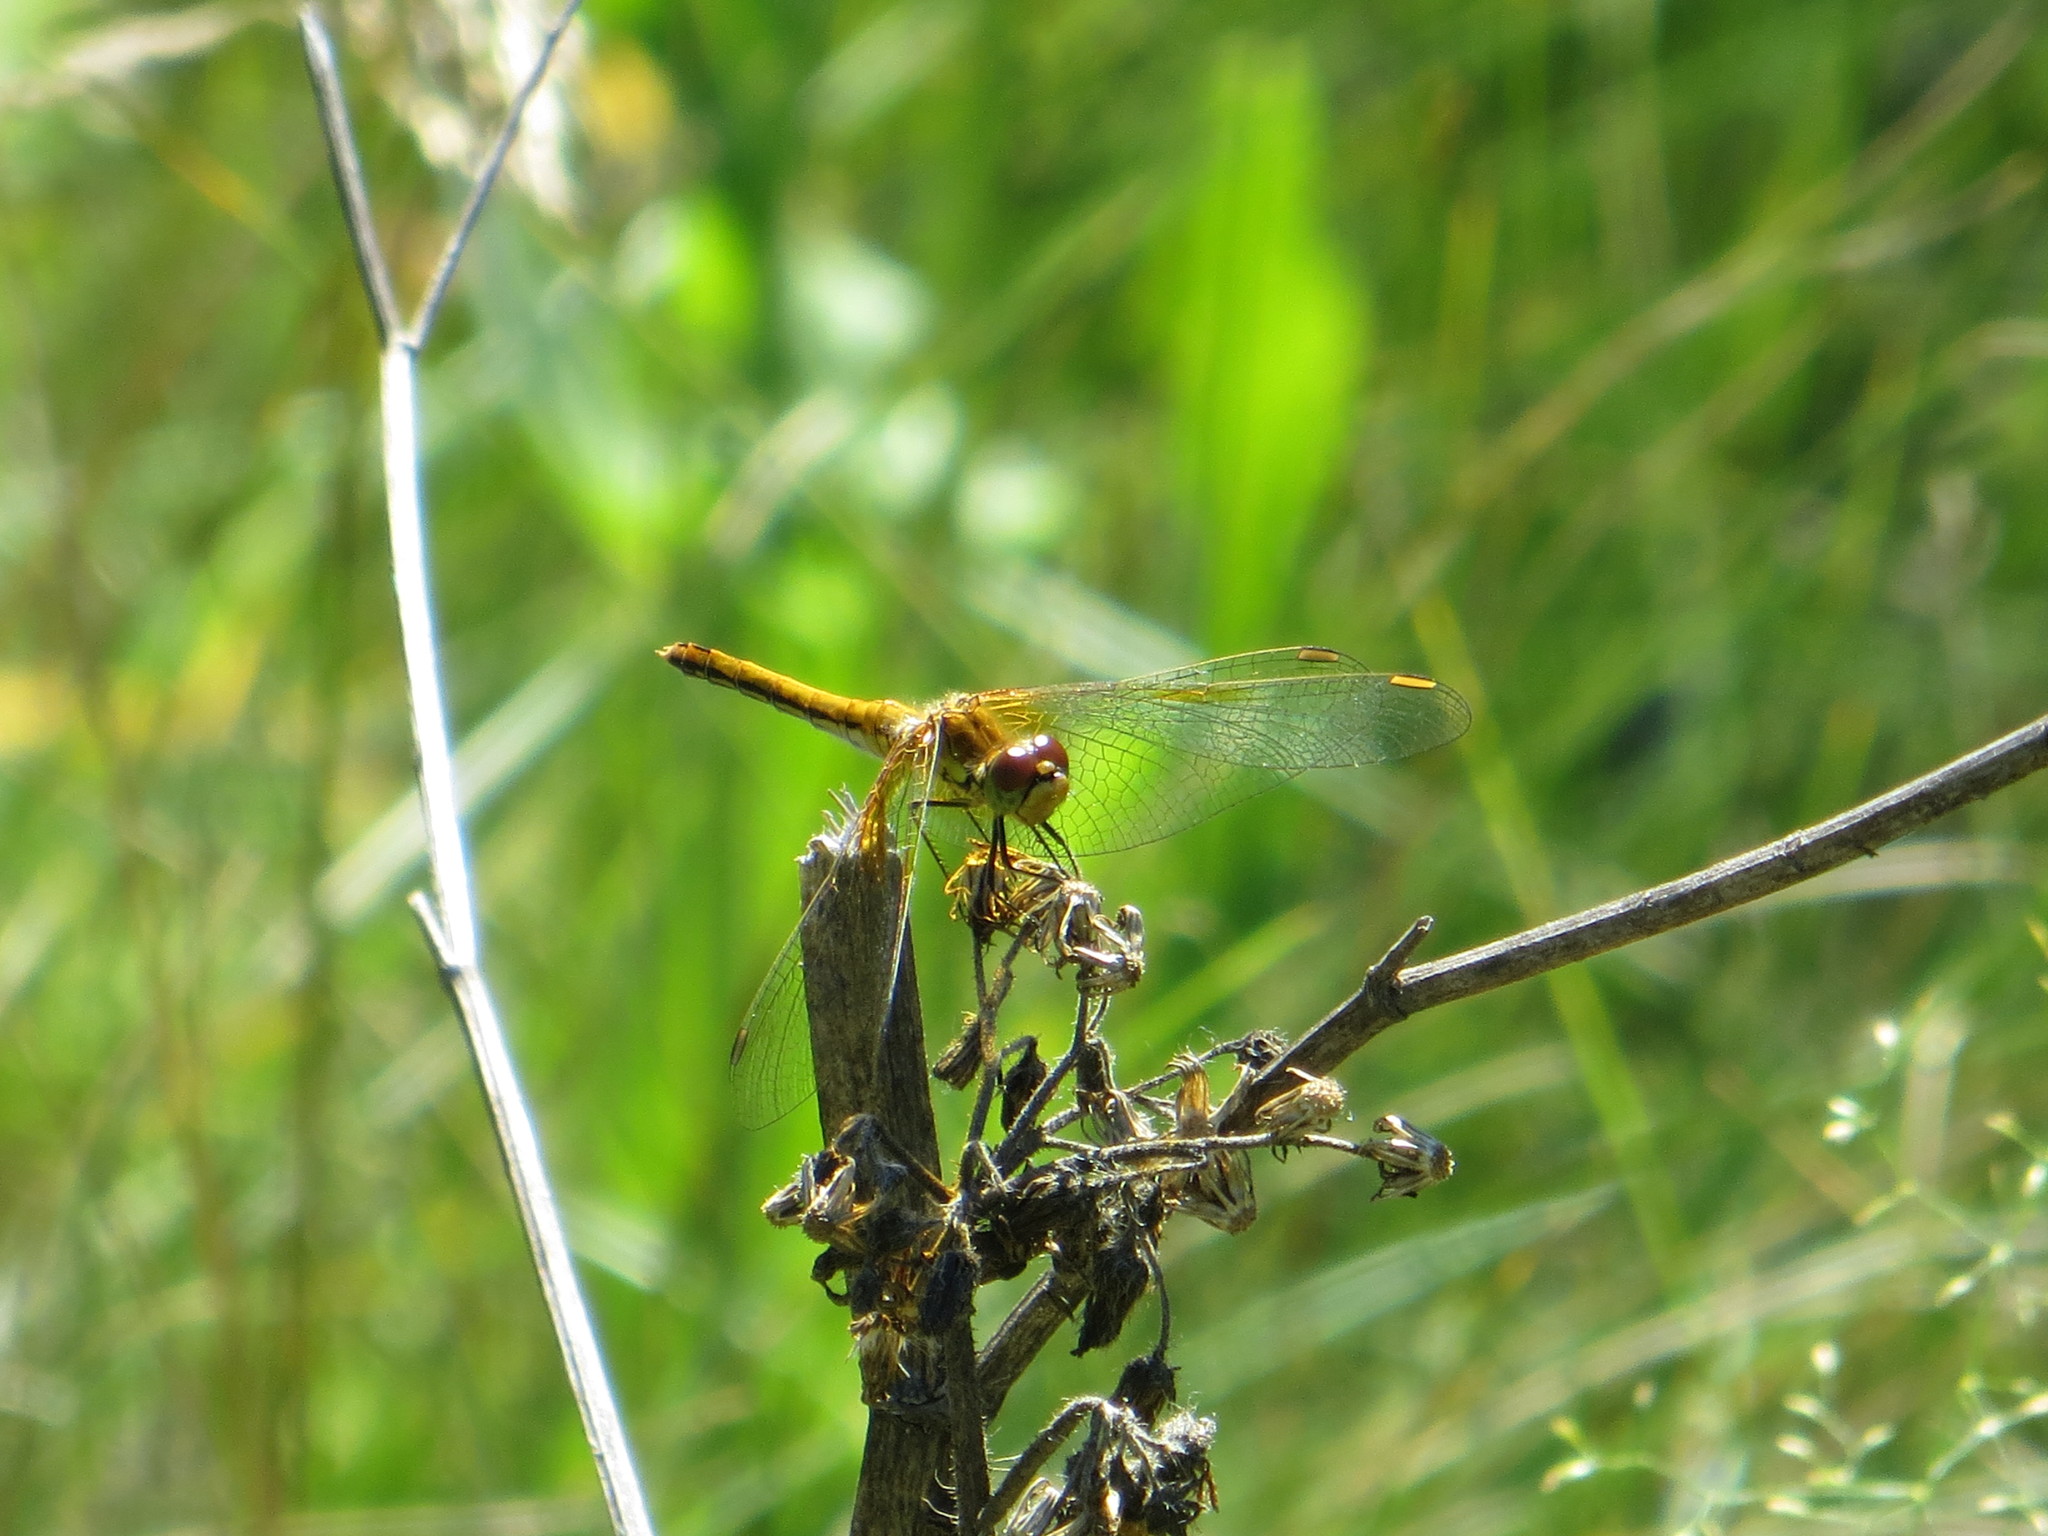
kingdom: Animalia
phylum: Arthropoda
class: Insecta
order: Odonata
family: Libellulidae
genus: Sympetrum
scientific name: Sympetrum flaveolum
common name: Yellow-winged darter
